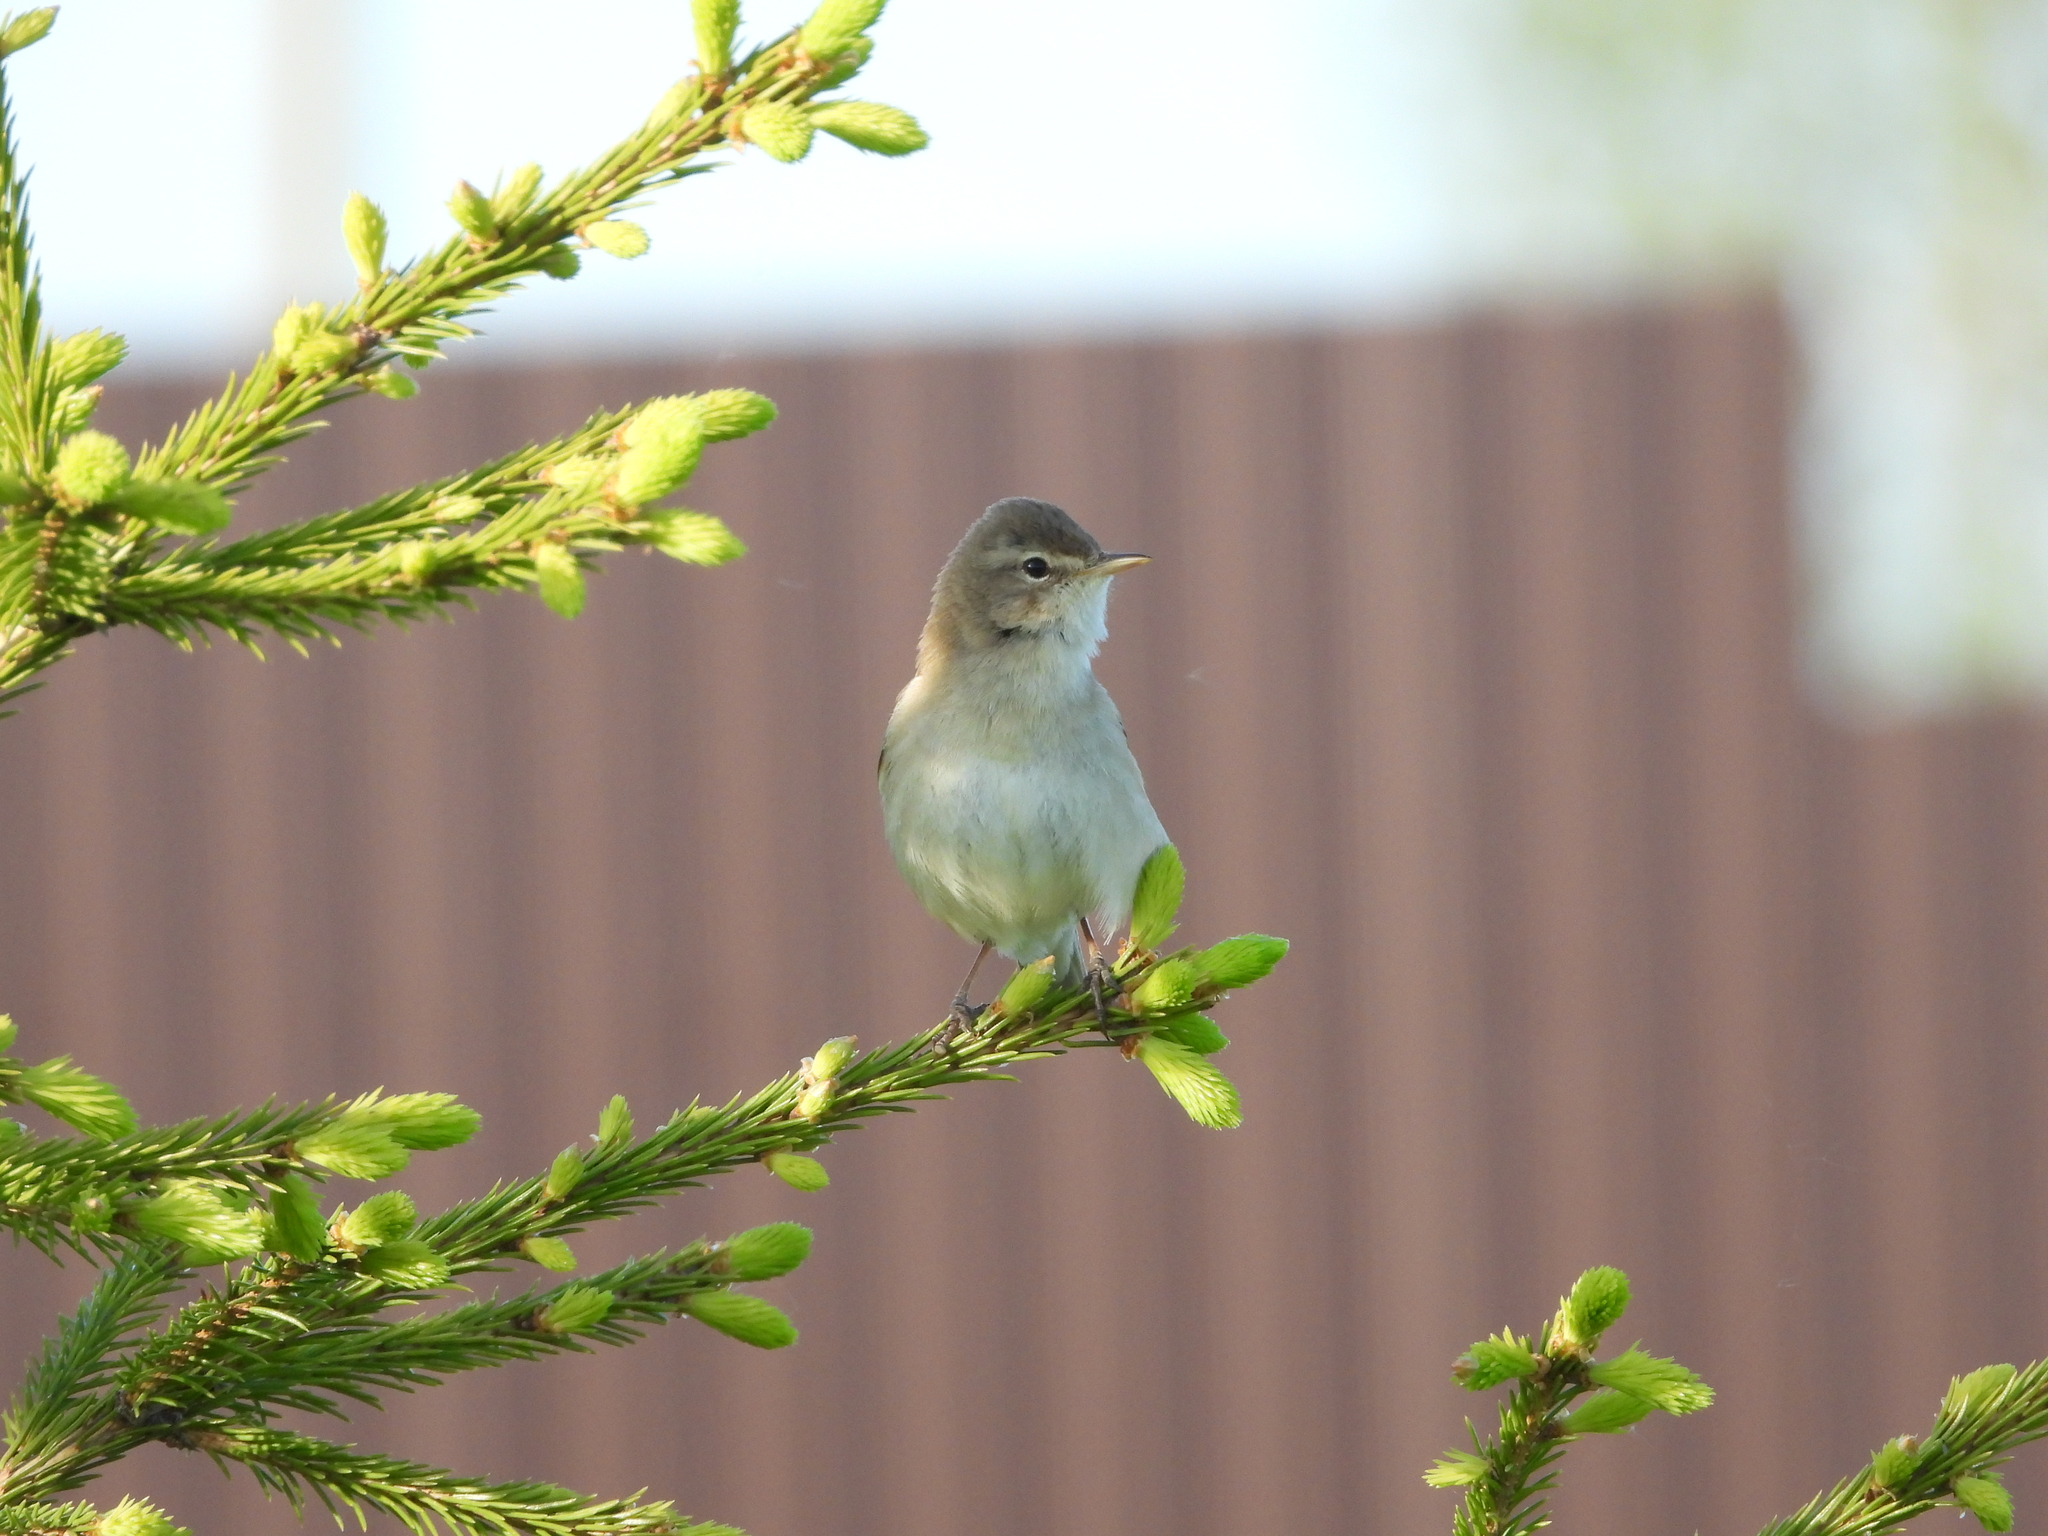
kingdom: Animalia
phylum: Chordata
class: Aves
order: Passeriformes
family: Acrocephalidae
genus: Iduna
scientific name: Iduna caligata
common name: Booted warbler
